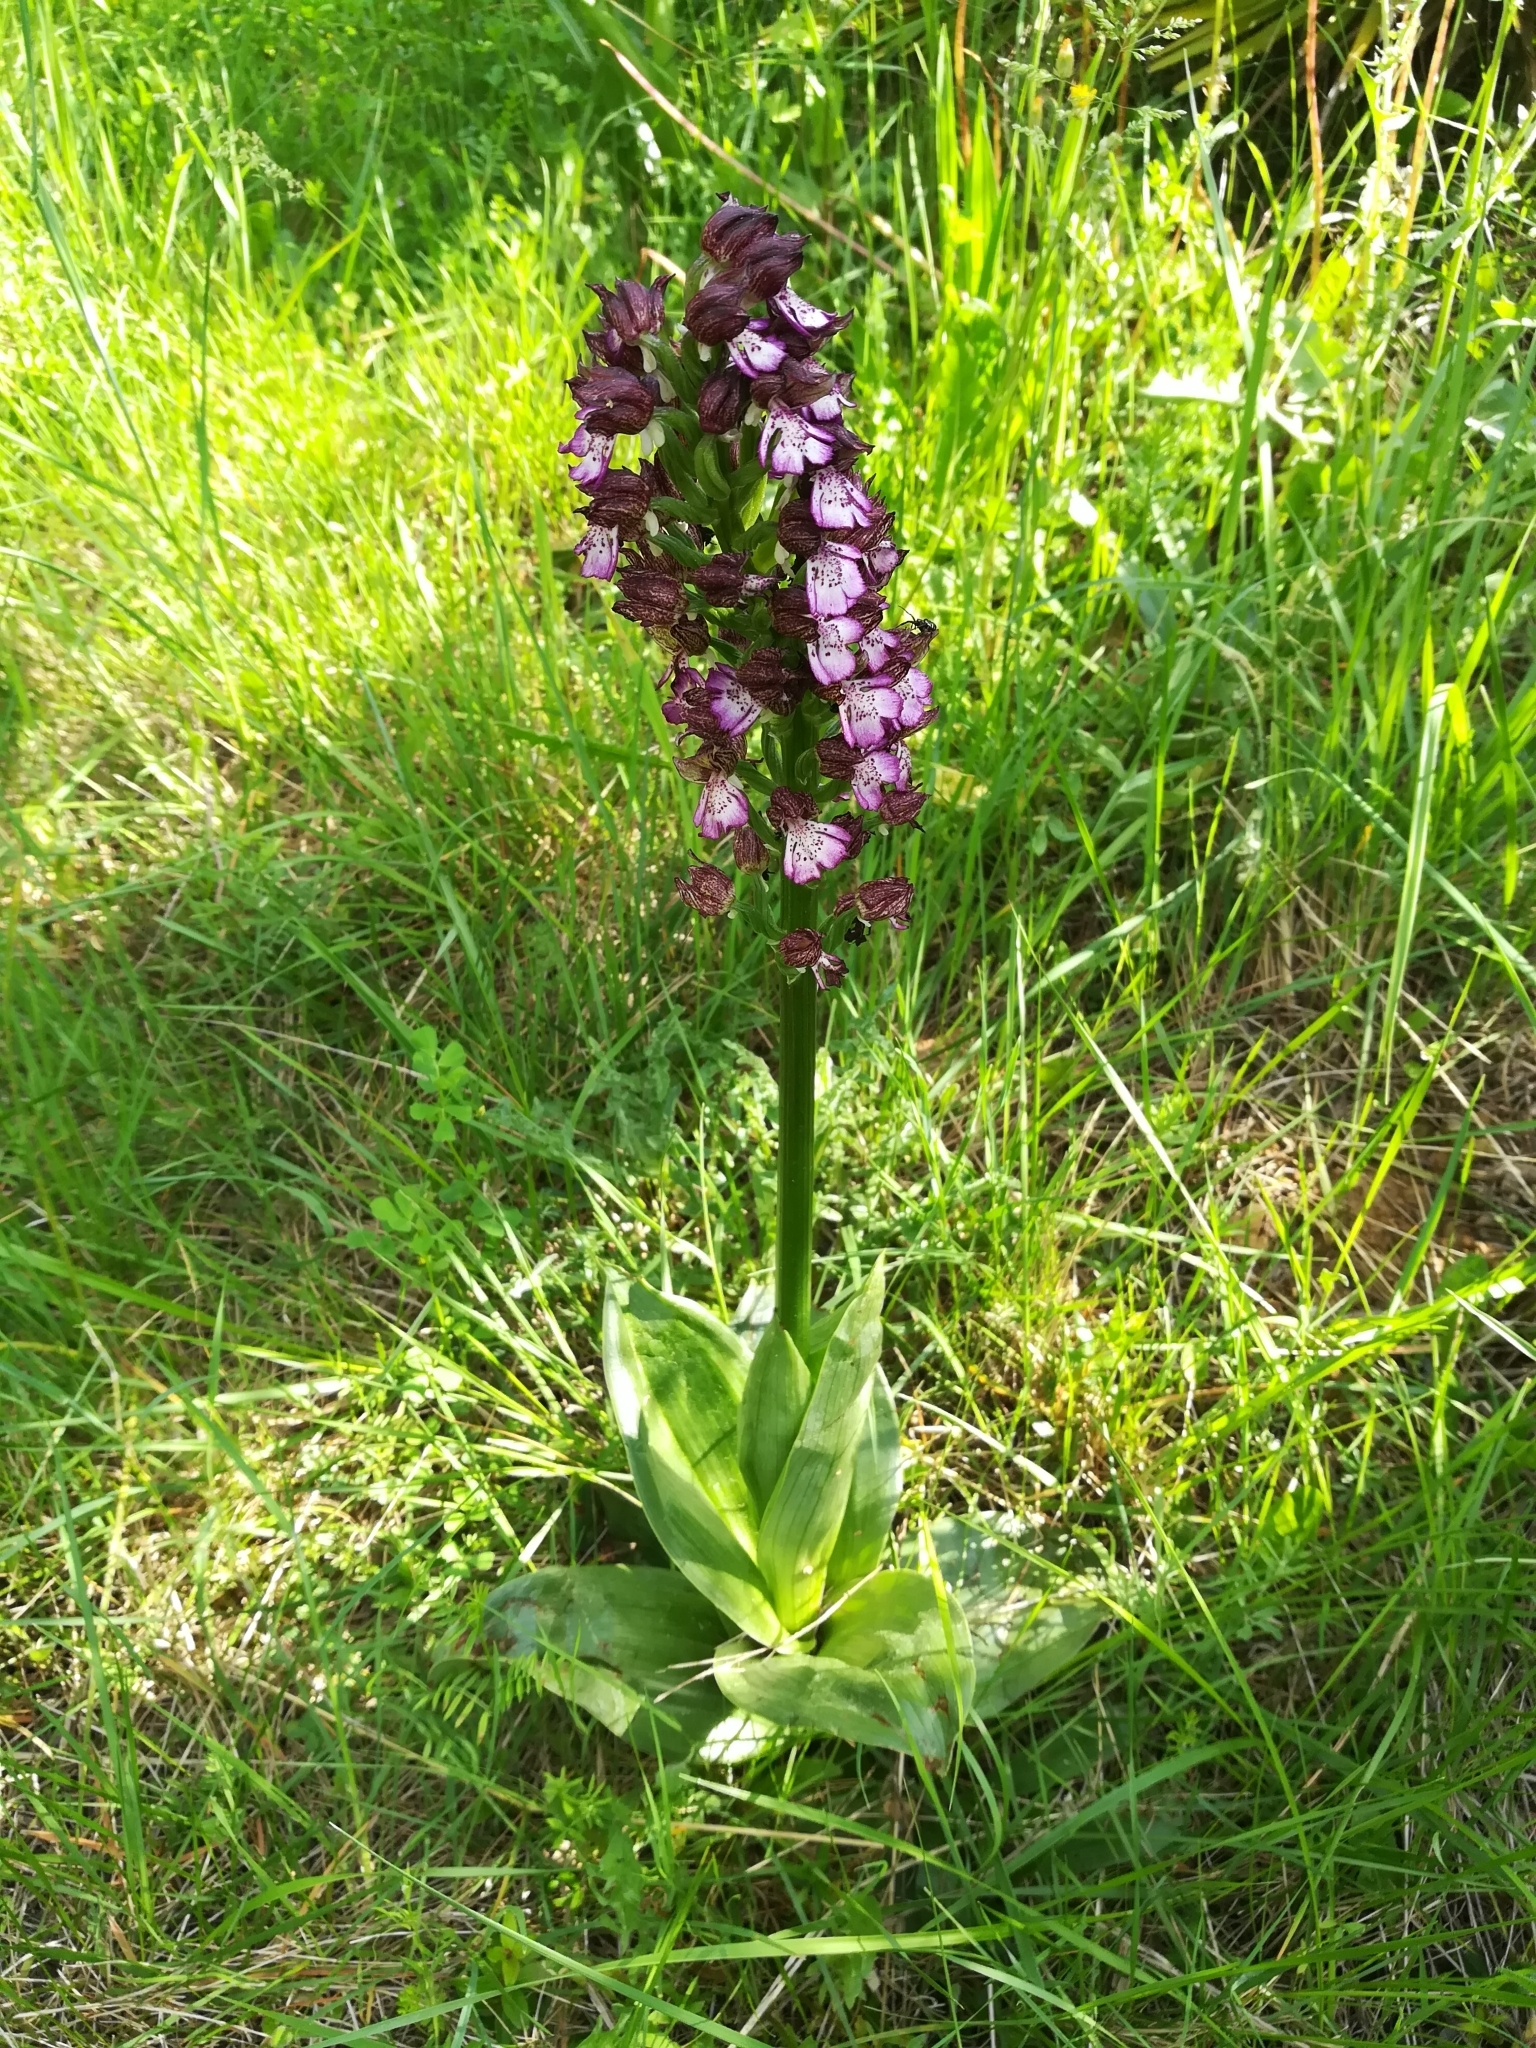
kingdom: Plantae
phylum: Tracheophyta
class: Liliopsida
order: Asparagales
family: Orchidaceae
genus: Orchis
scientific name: Orchis purpurea
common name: Lady orchid
